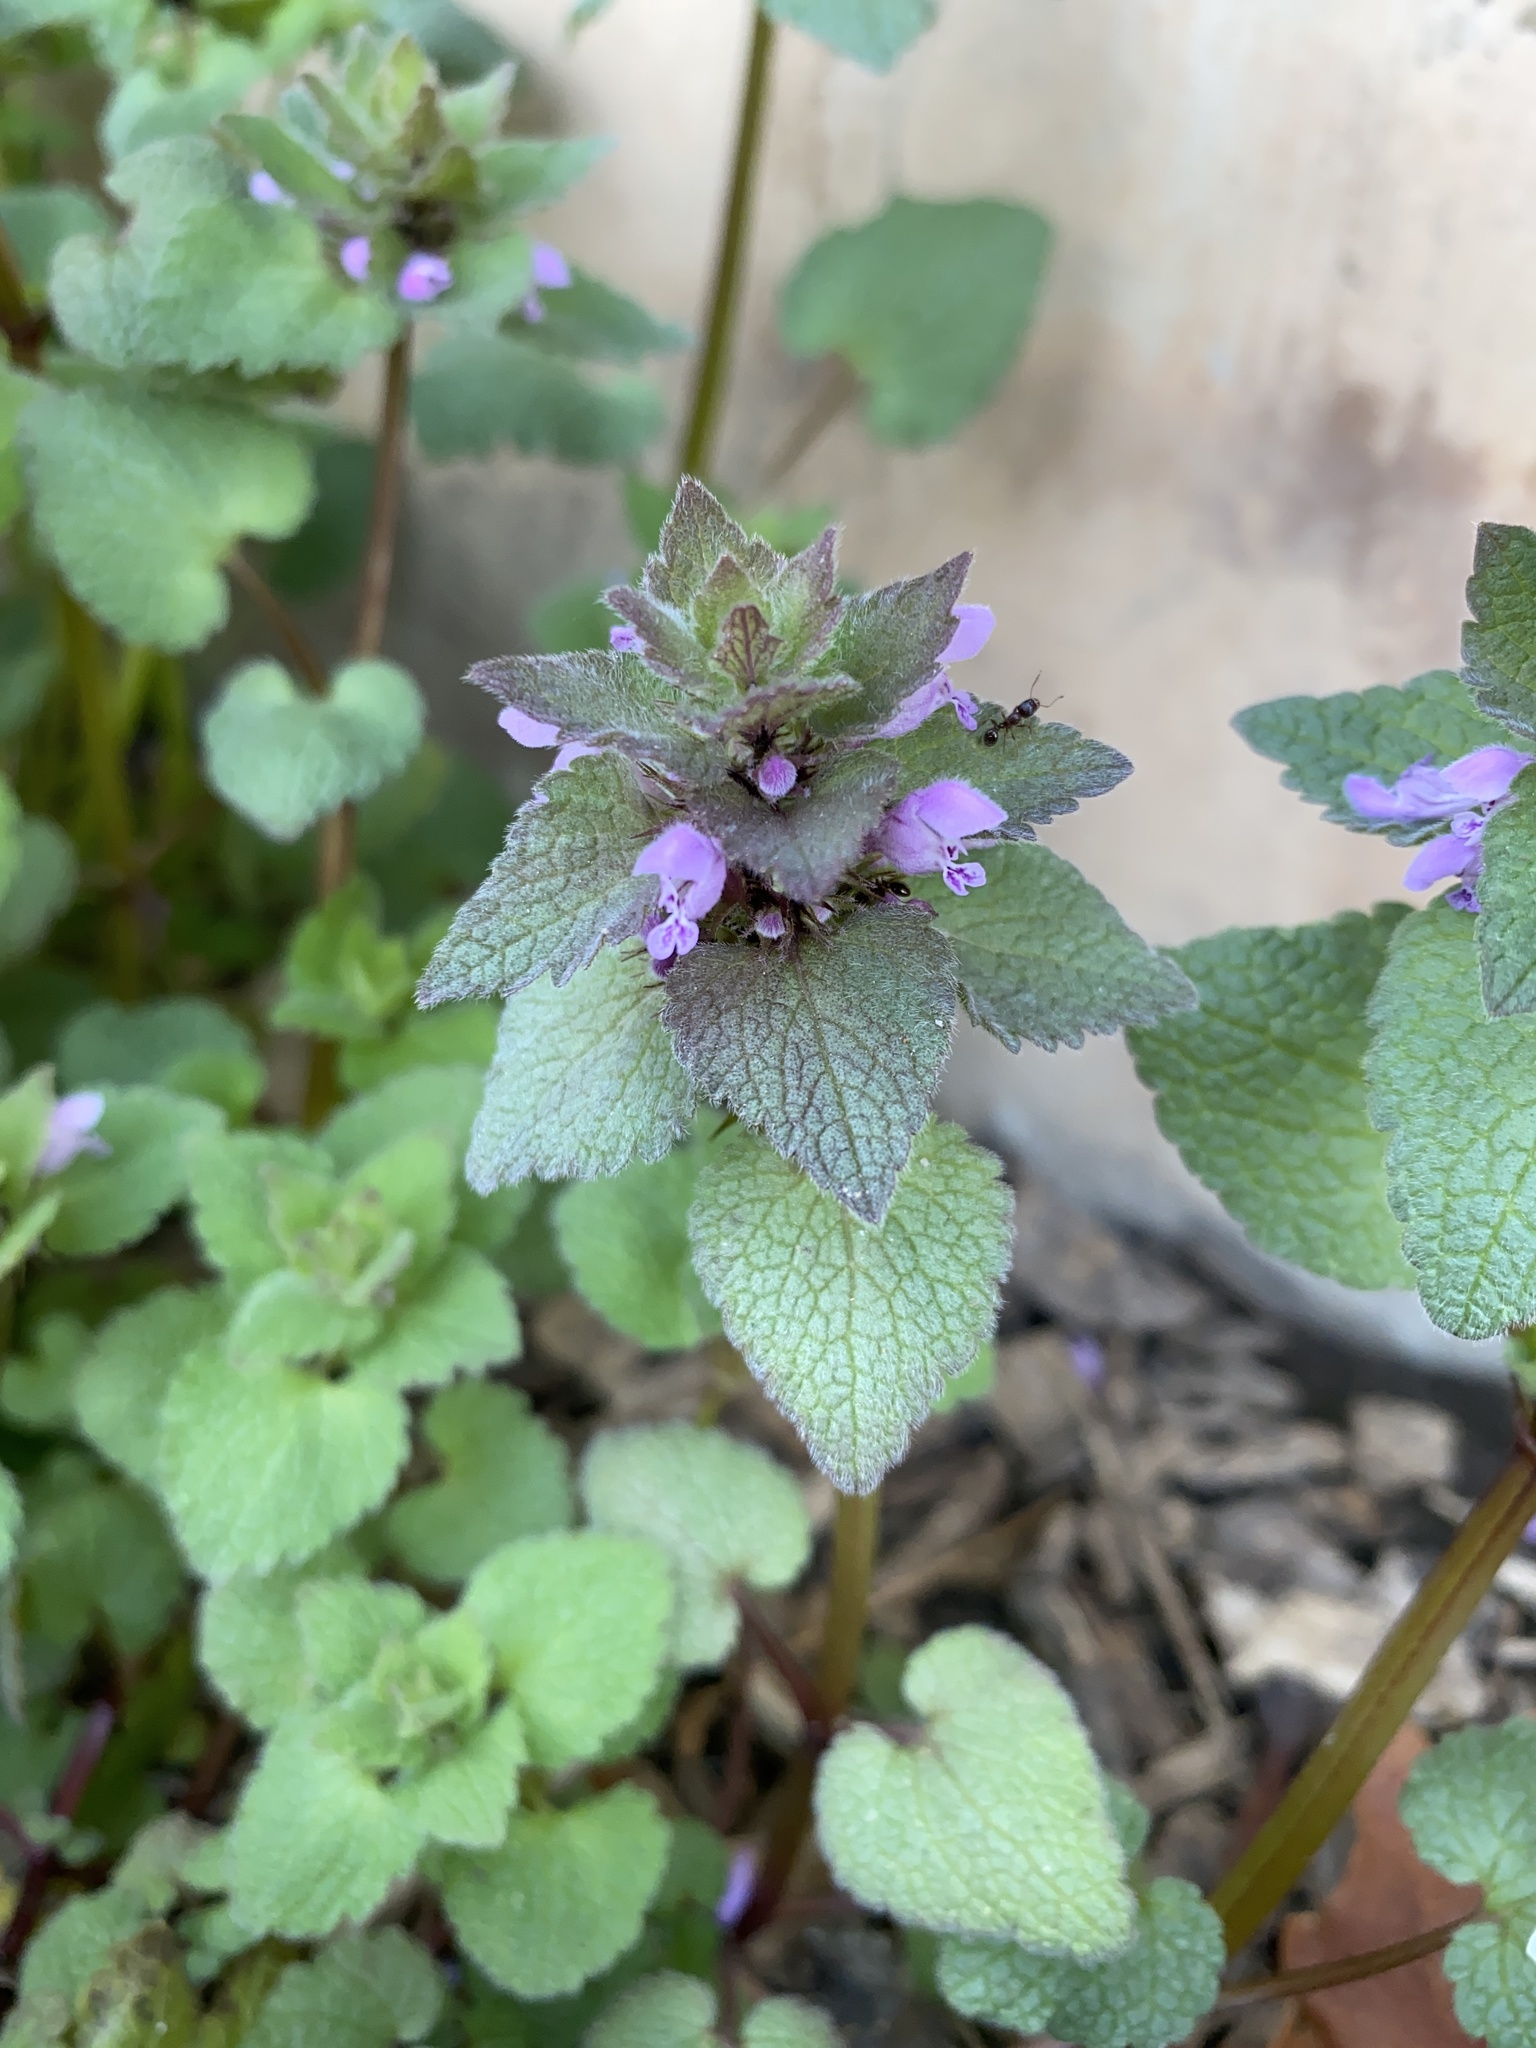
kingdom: Plantae
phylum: Tracheophyta
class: Magnoliopsida
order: Lamiales
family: Lamiaceae
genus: Lamium
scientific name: Lamium purpureum
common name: Red dead-nettle
